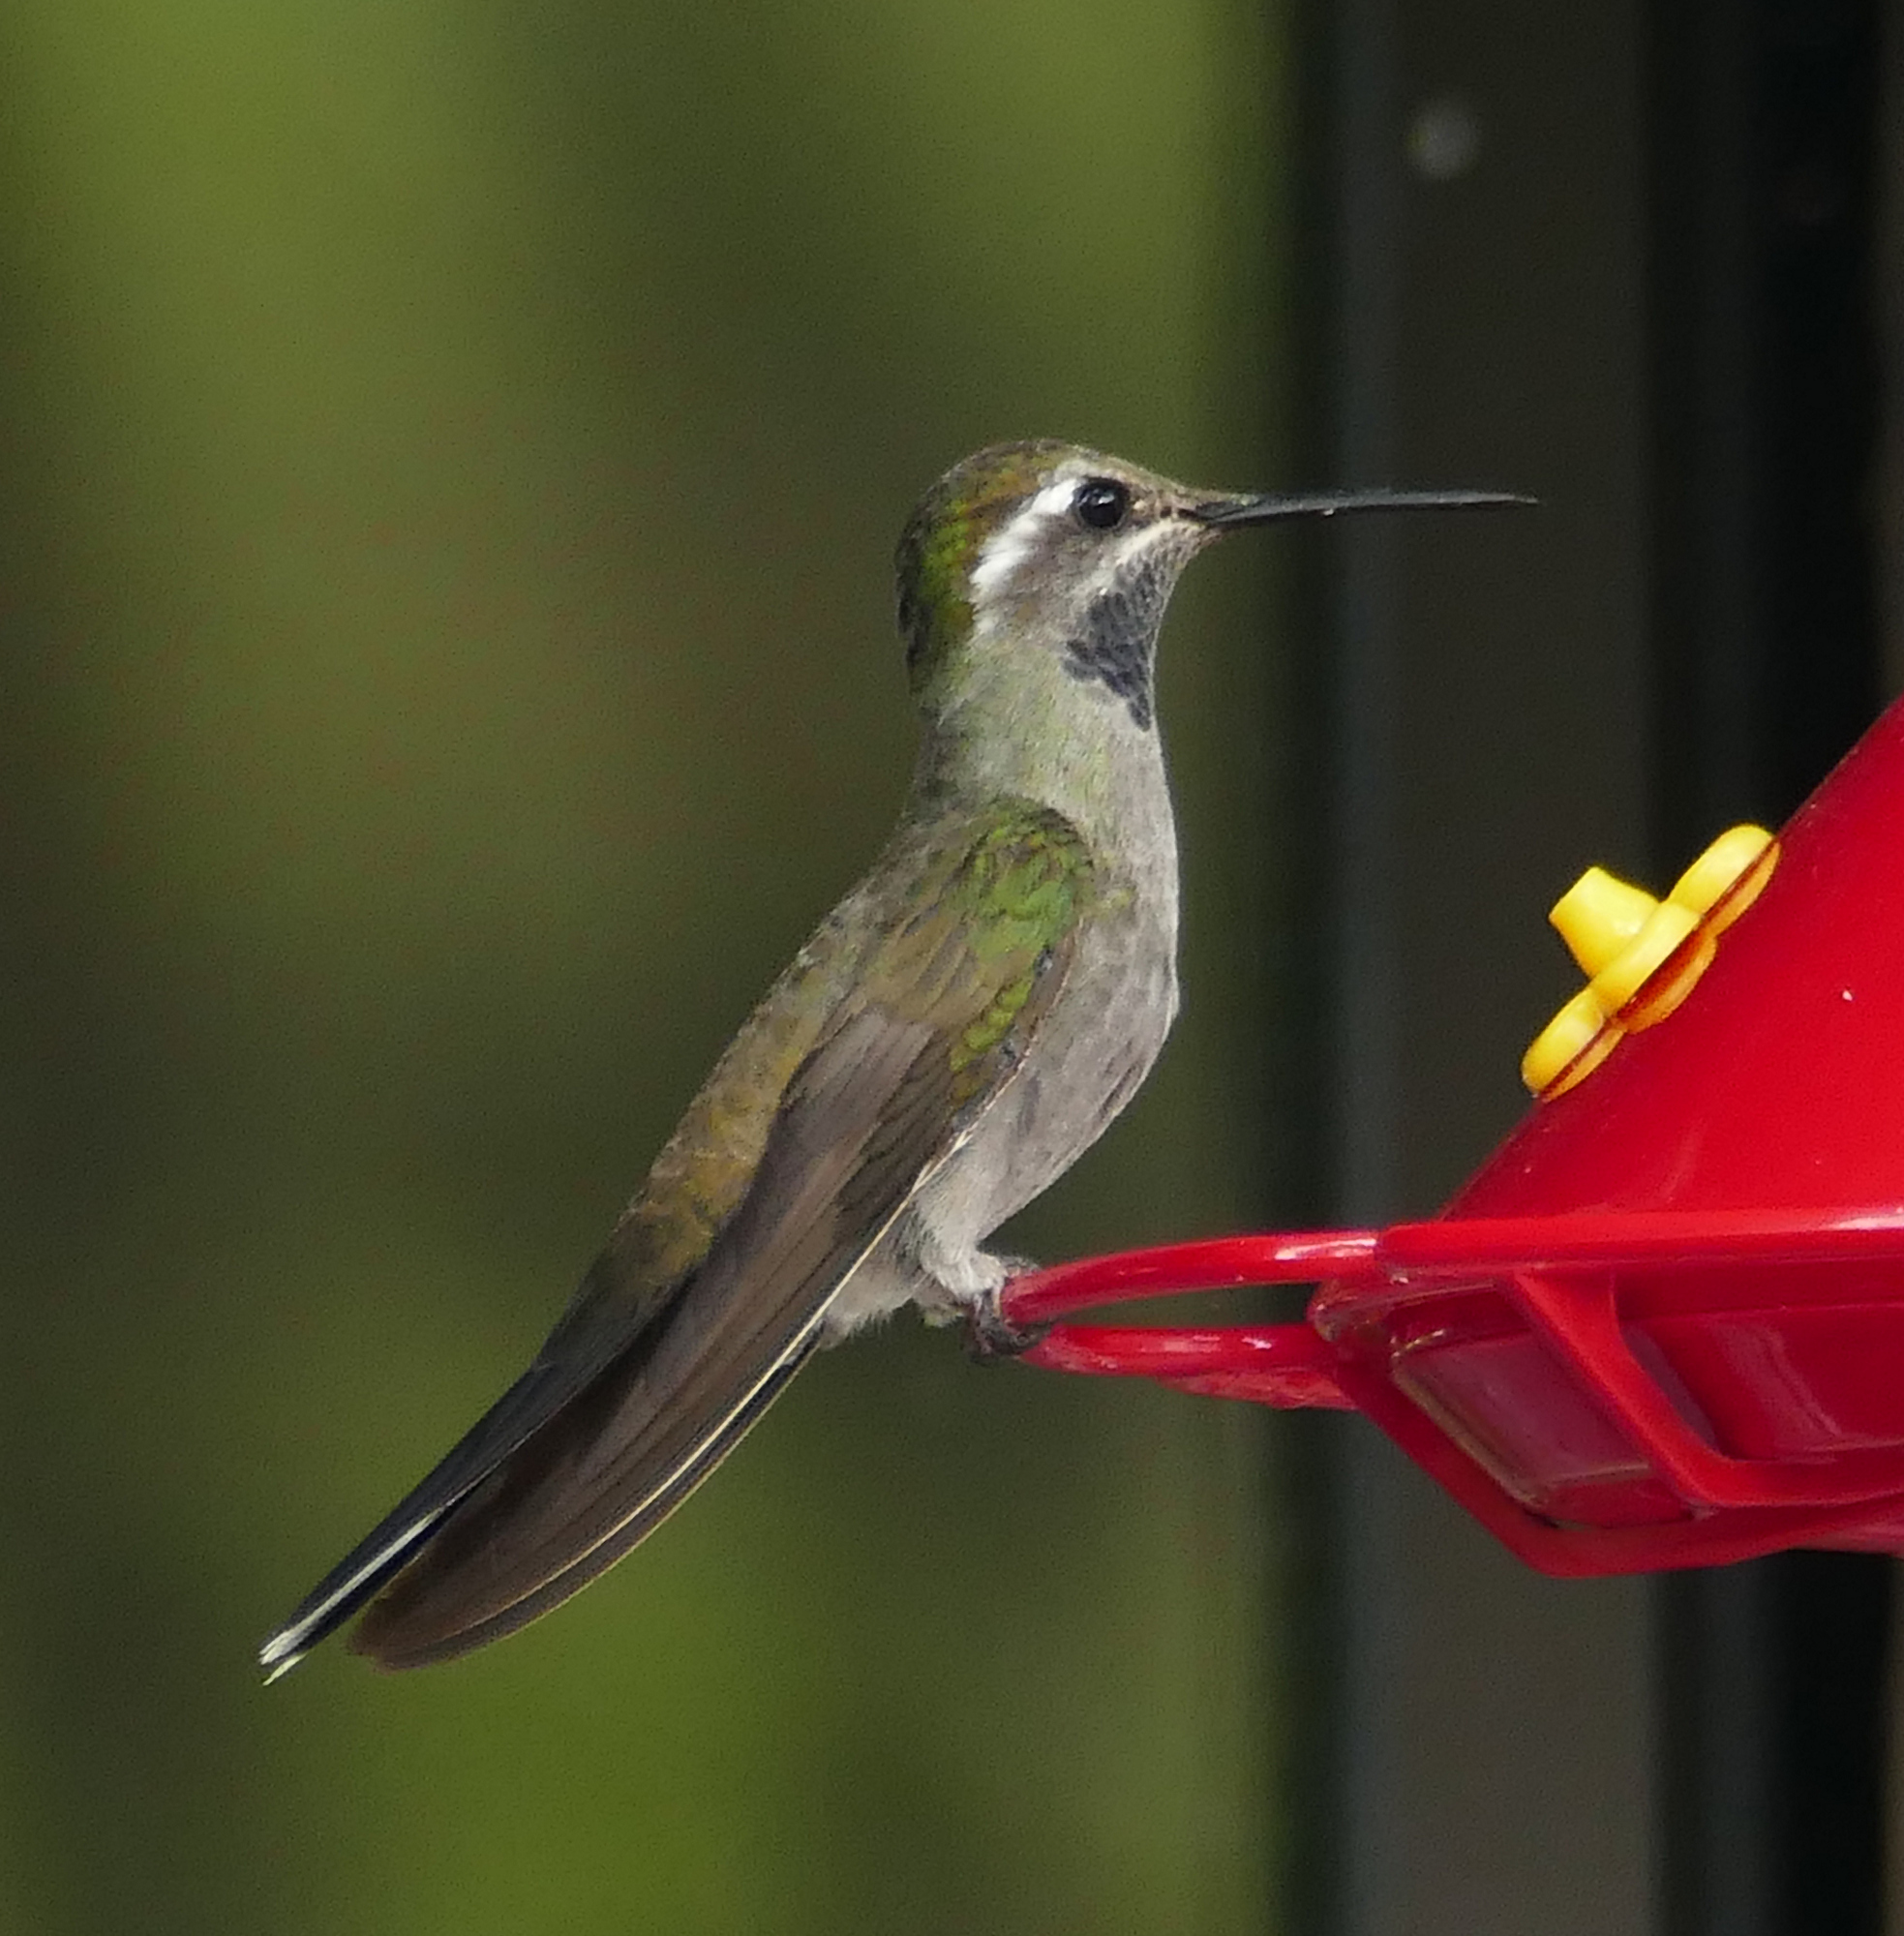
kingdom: Animalia
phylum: Chordata
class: Aves
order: Apodiformes
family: Trochilidae
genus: Lampornis
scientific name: Lampornis clemenciae
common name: Blue-throated mountaingem
